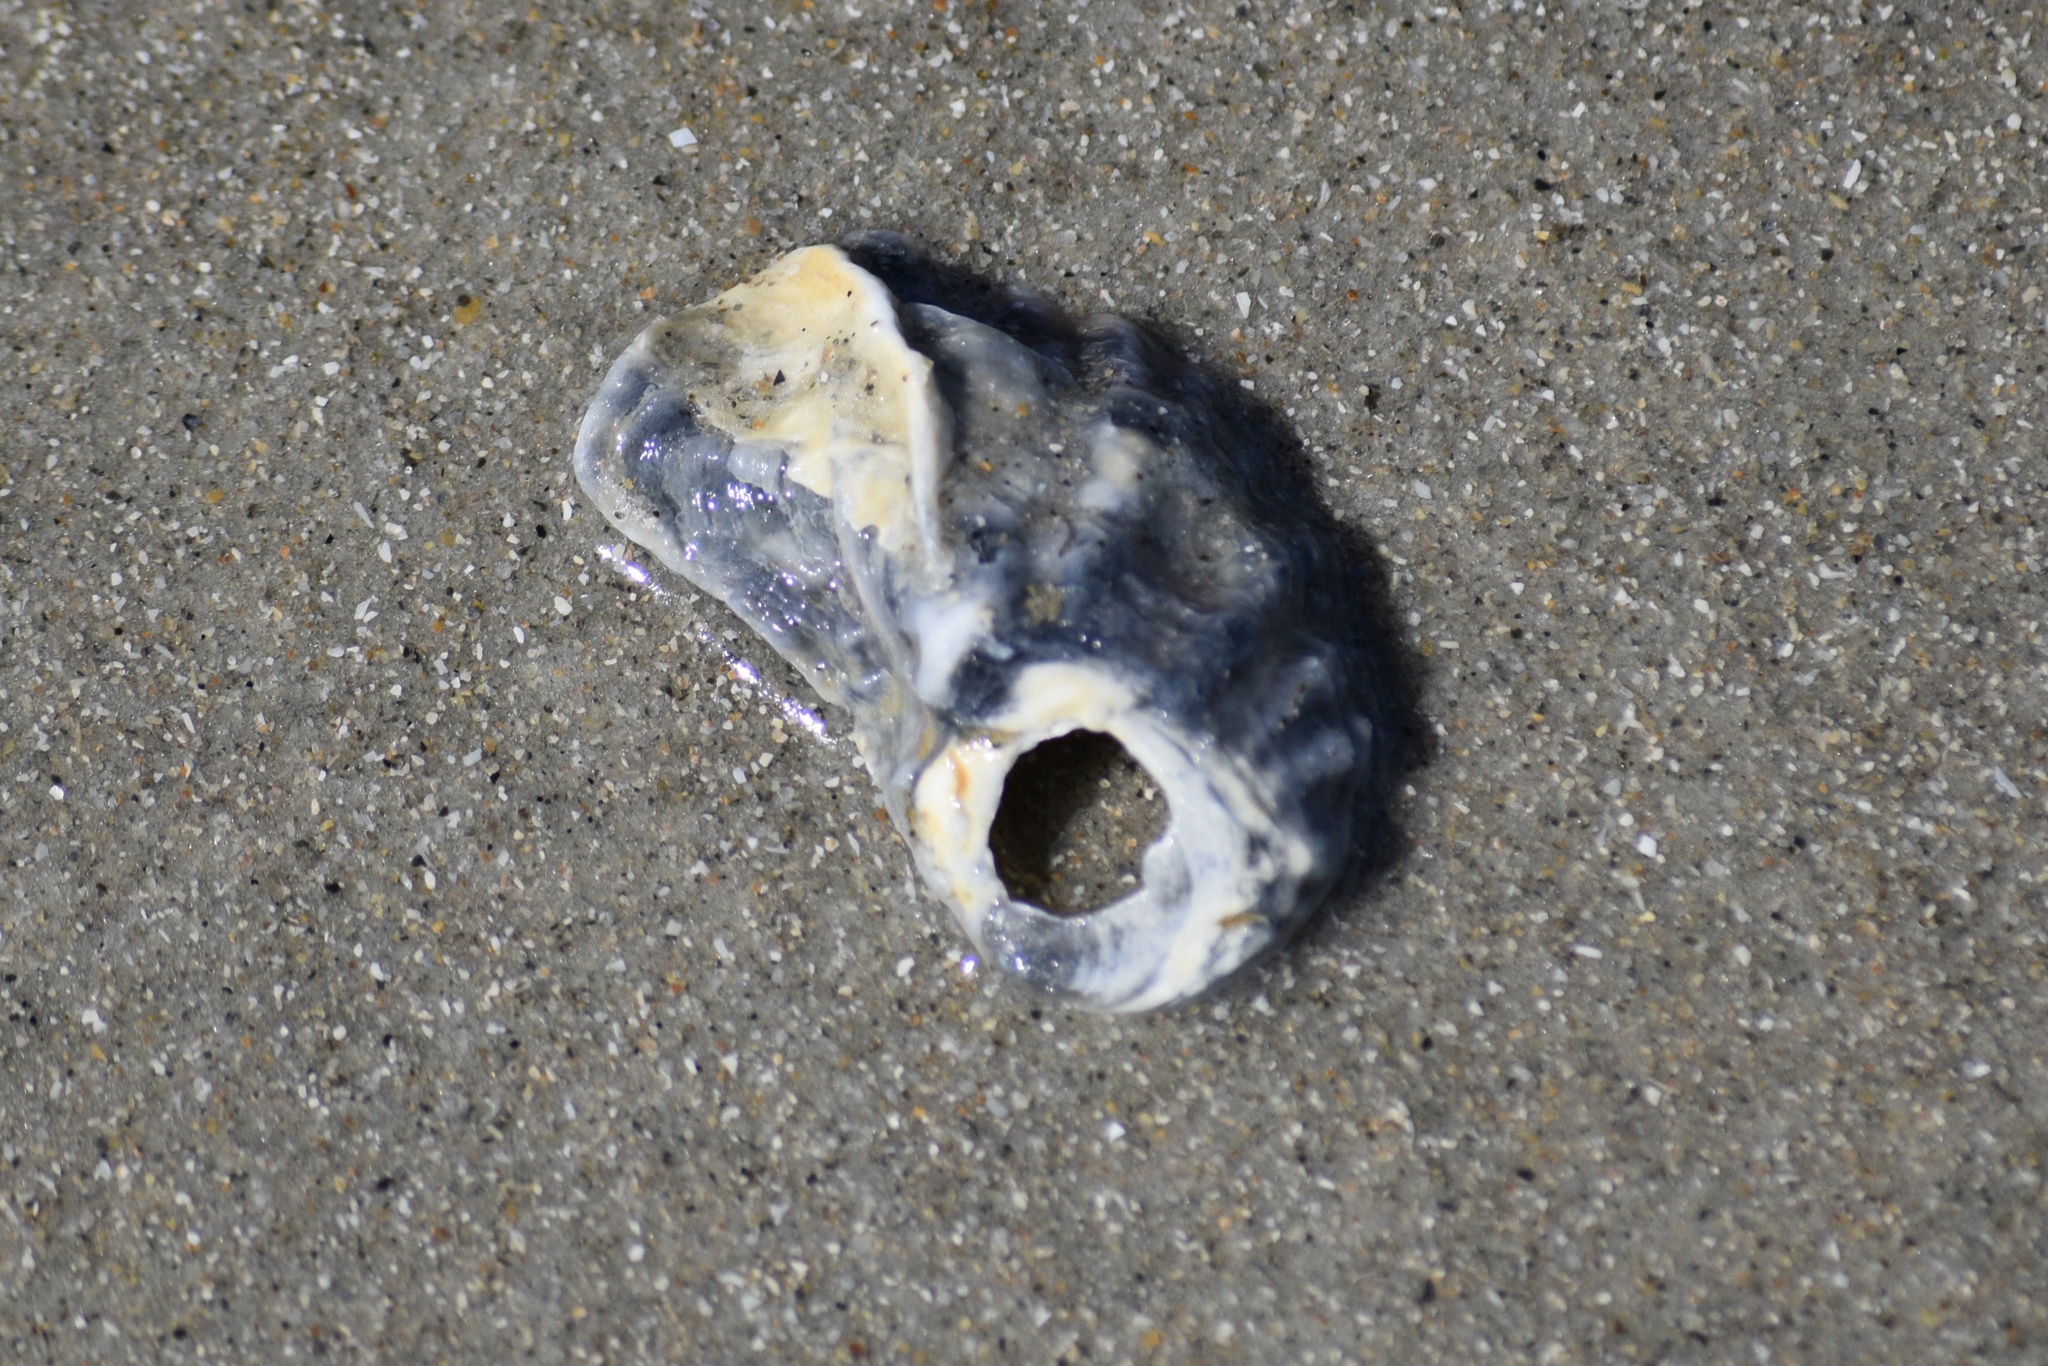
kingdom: Animalia
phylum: Mollusca
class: Bivalvia
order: Ostreida
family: Ostreidae
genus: Crassostrea
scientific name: Crassostrea virginica
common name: American oyster
